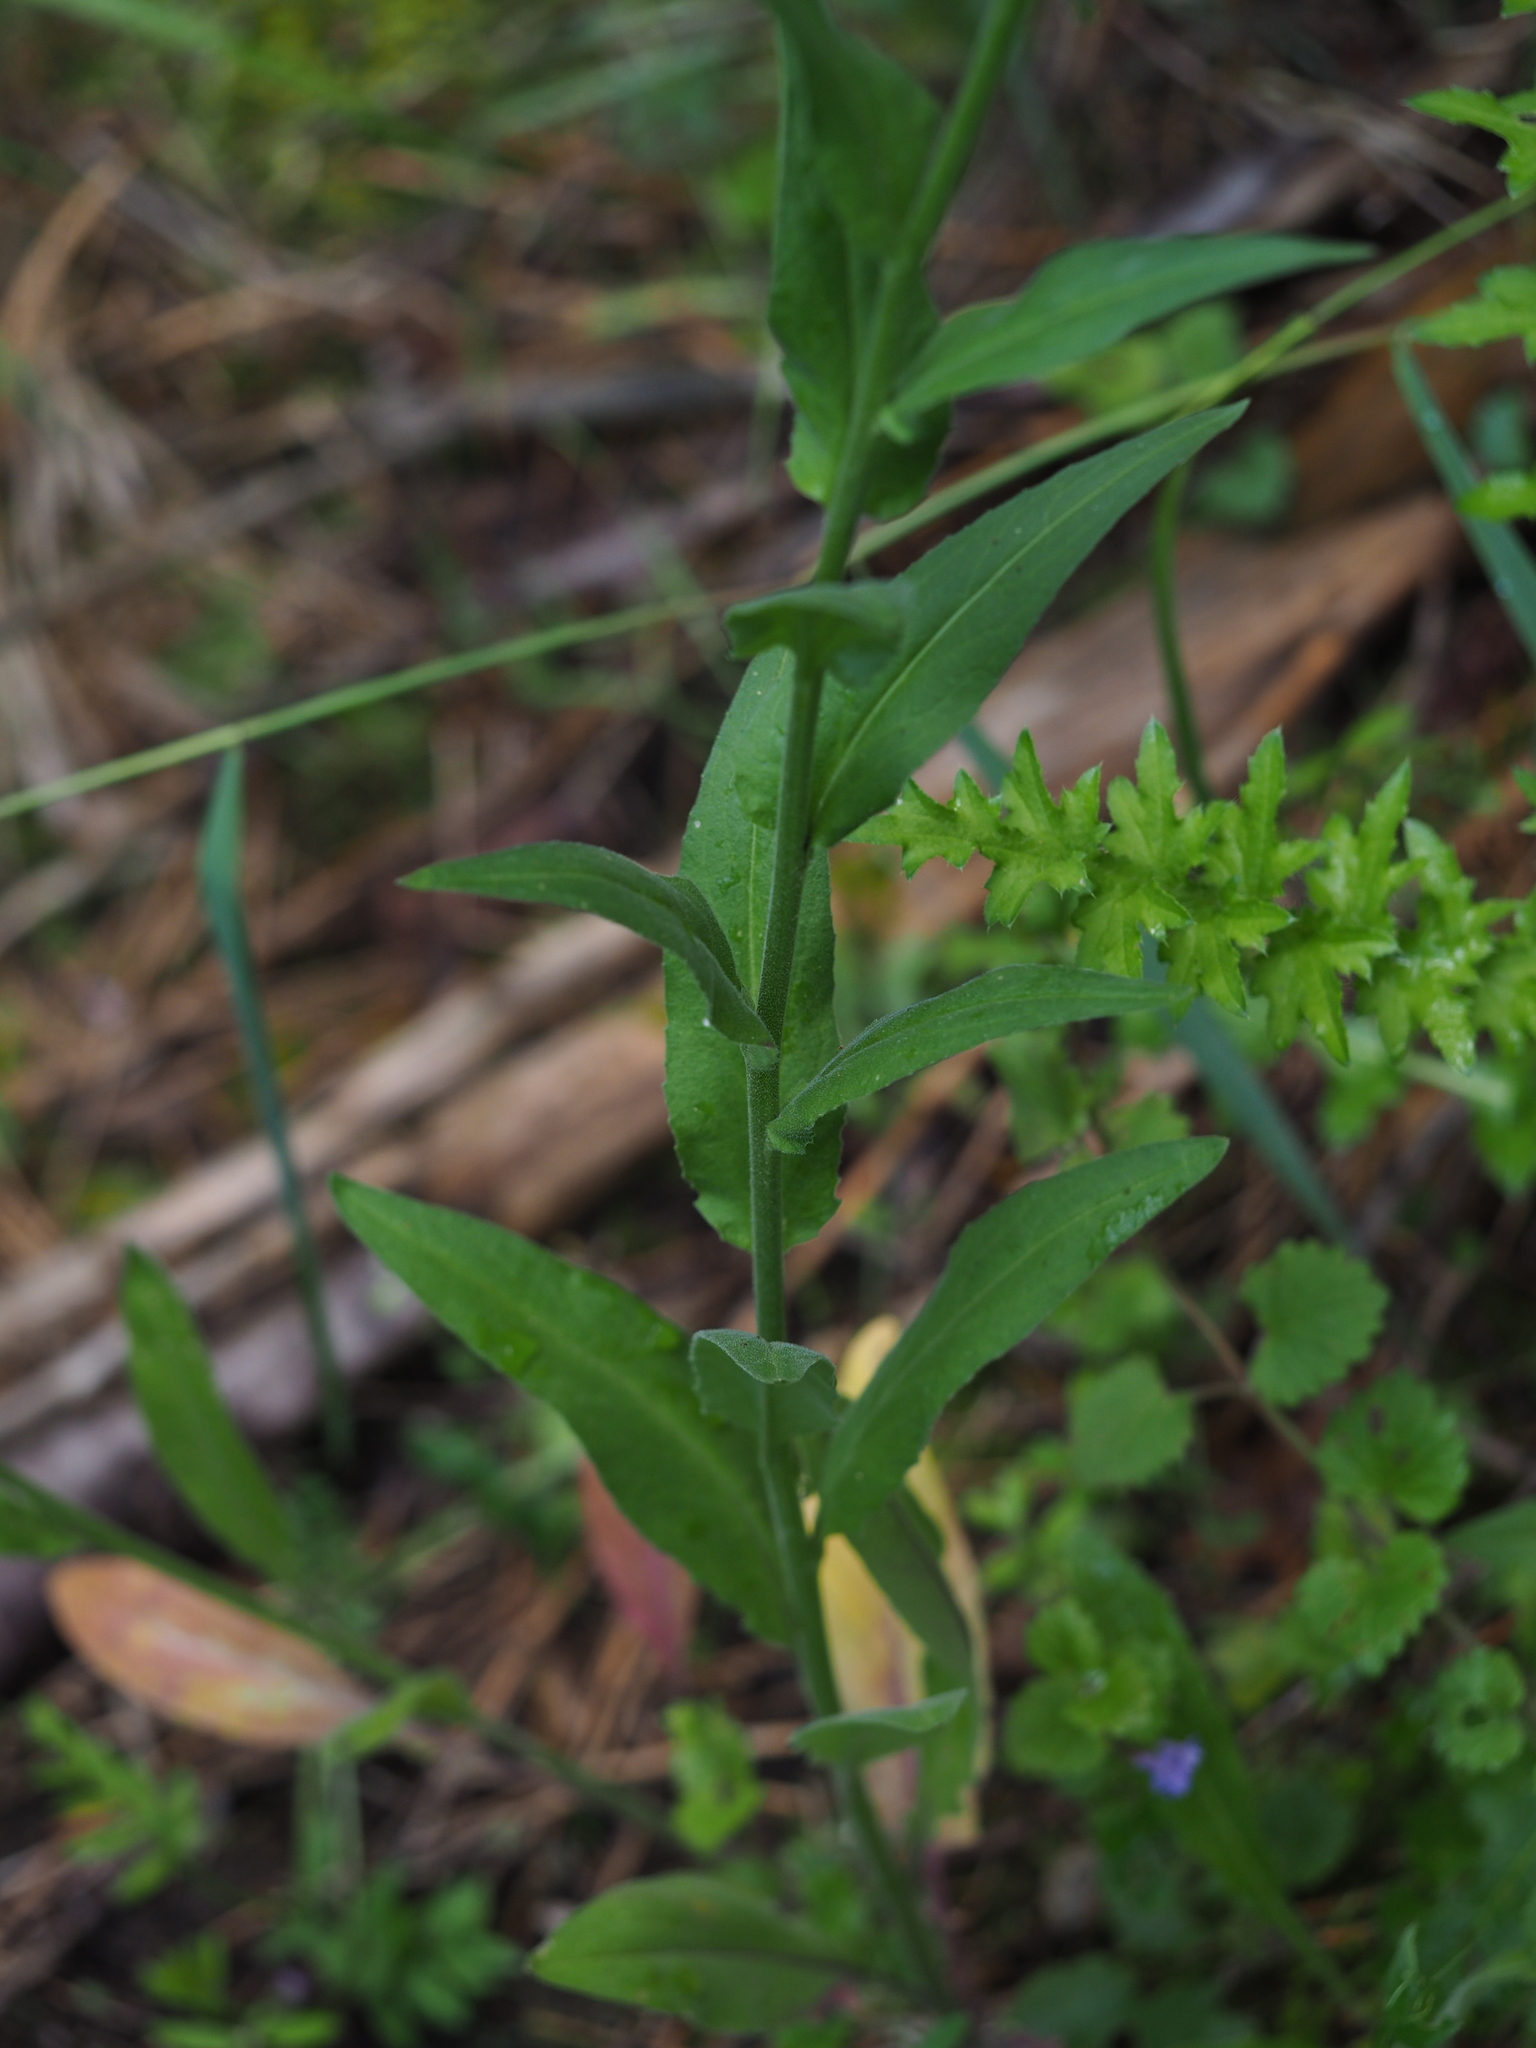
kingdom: Plantae
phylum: Tracheophyta
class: Magnoliopsida
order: Brassicales
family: Brassicaceae
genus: Hesperis
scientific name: Hesperis matronalis
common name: Dame's-violet
